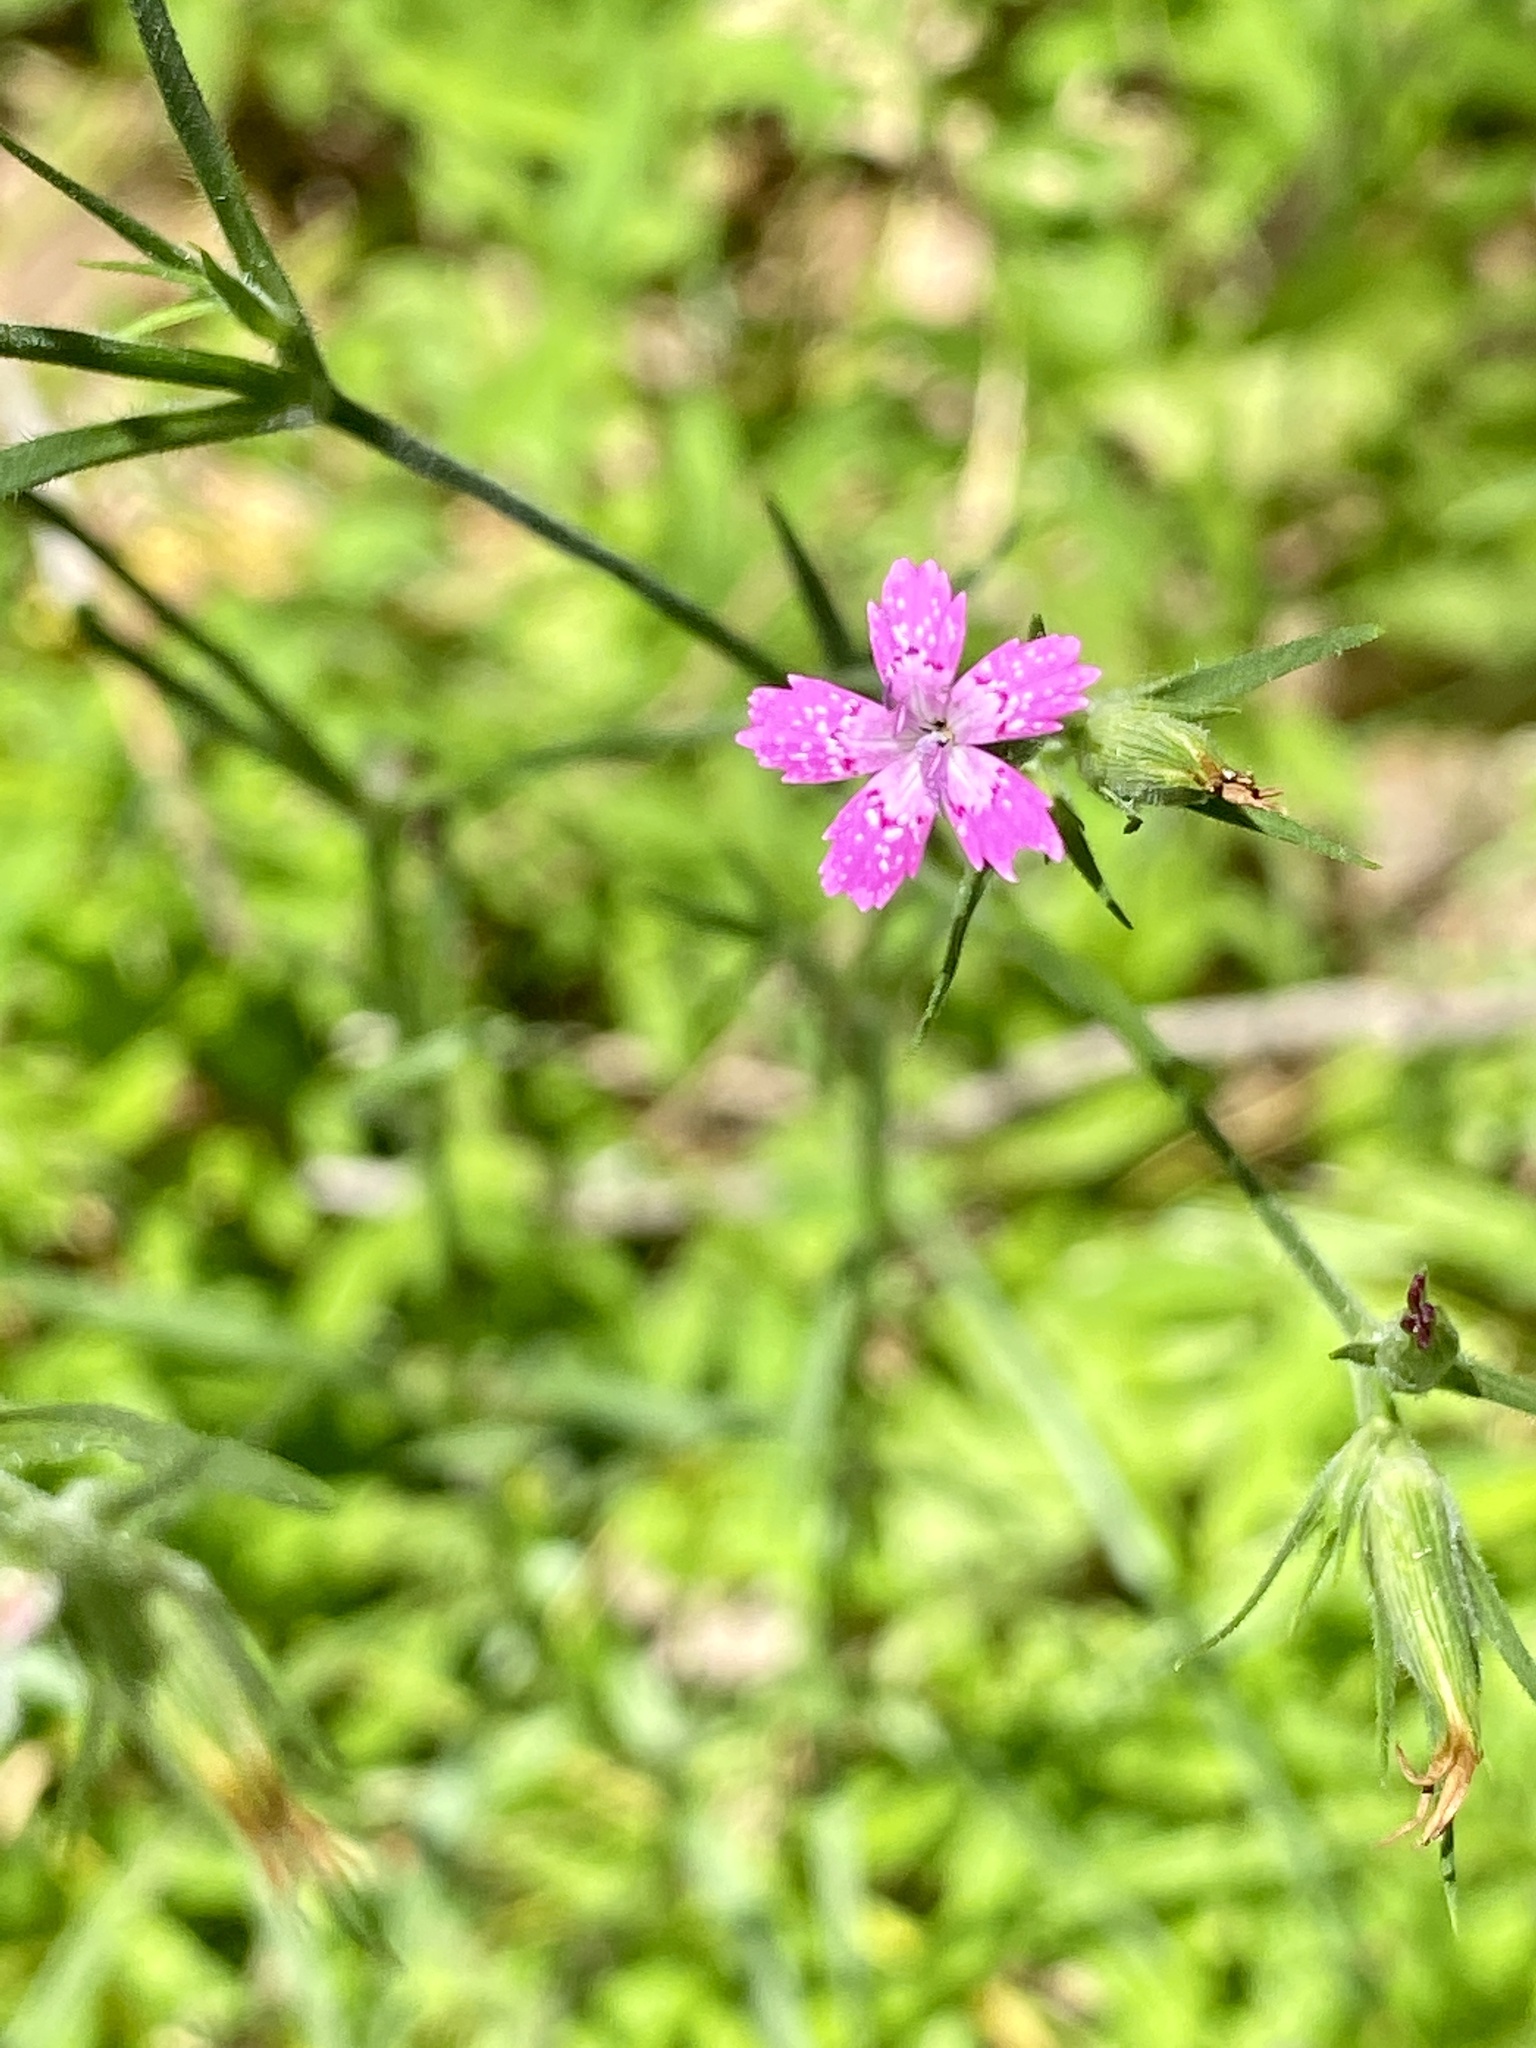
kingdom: Plantae
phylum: Tracheophyta
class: Magnoliopsida
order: Caryophyllales
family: Caryophyllaceae
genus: Dianthus
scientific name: Dianthus armeria
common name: Deptford pink
